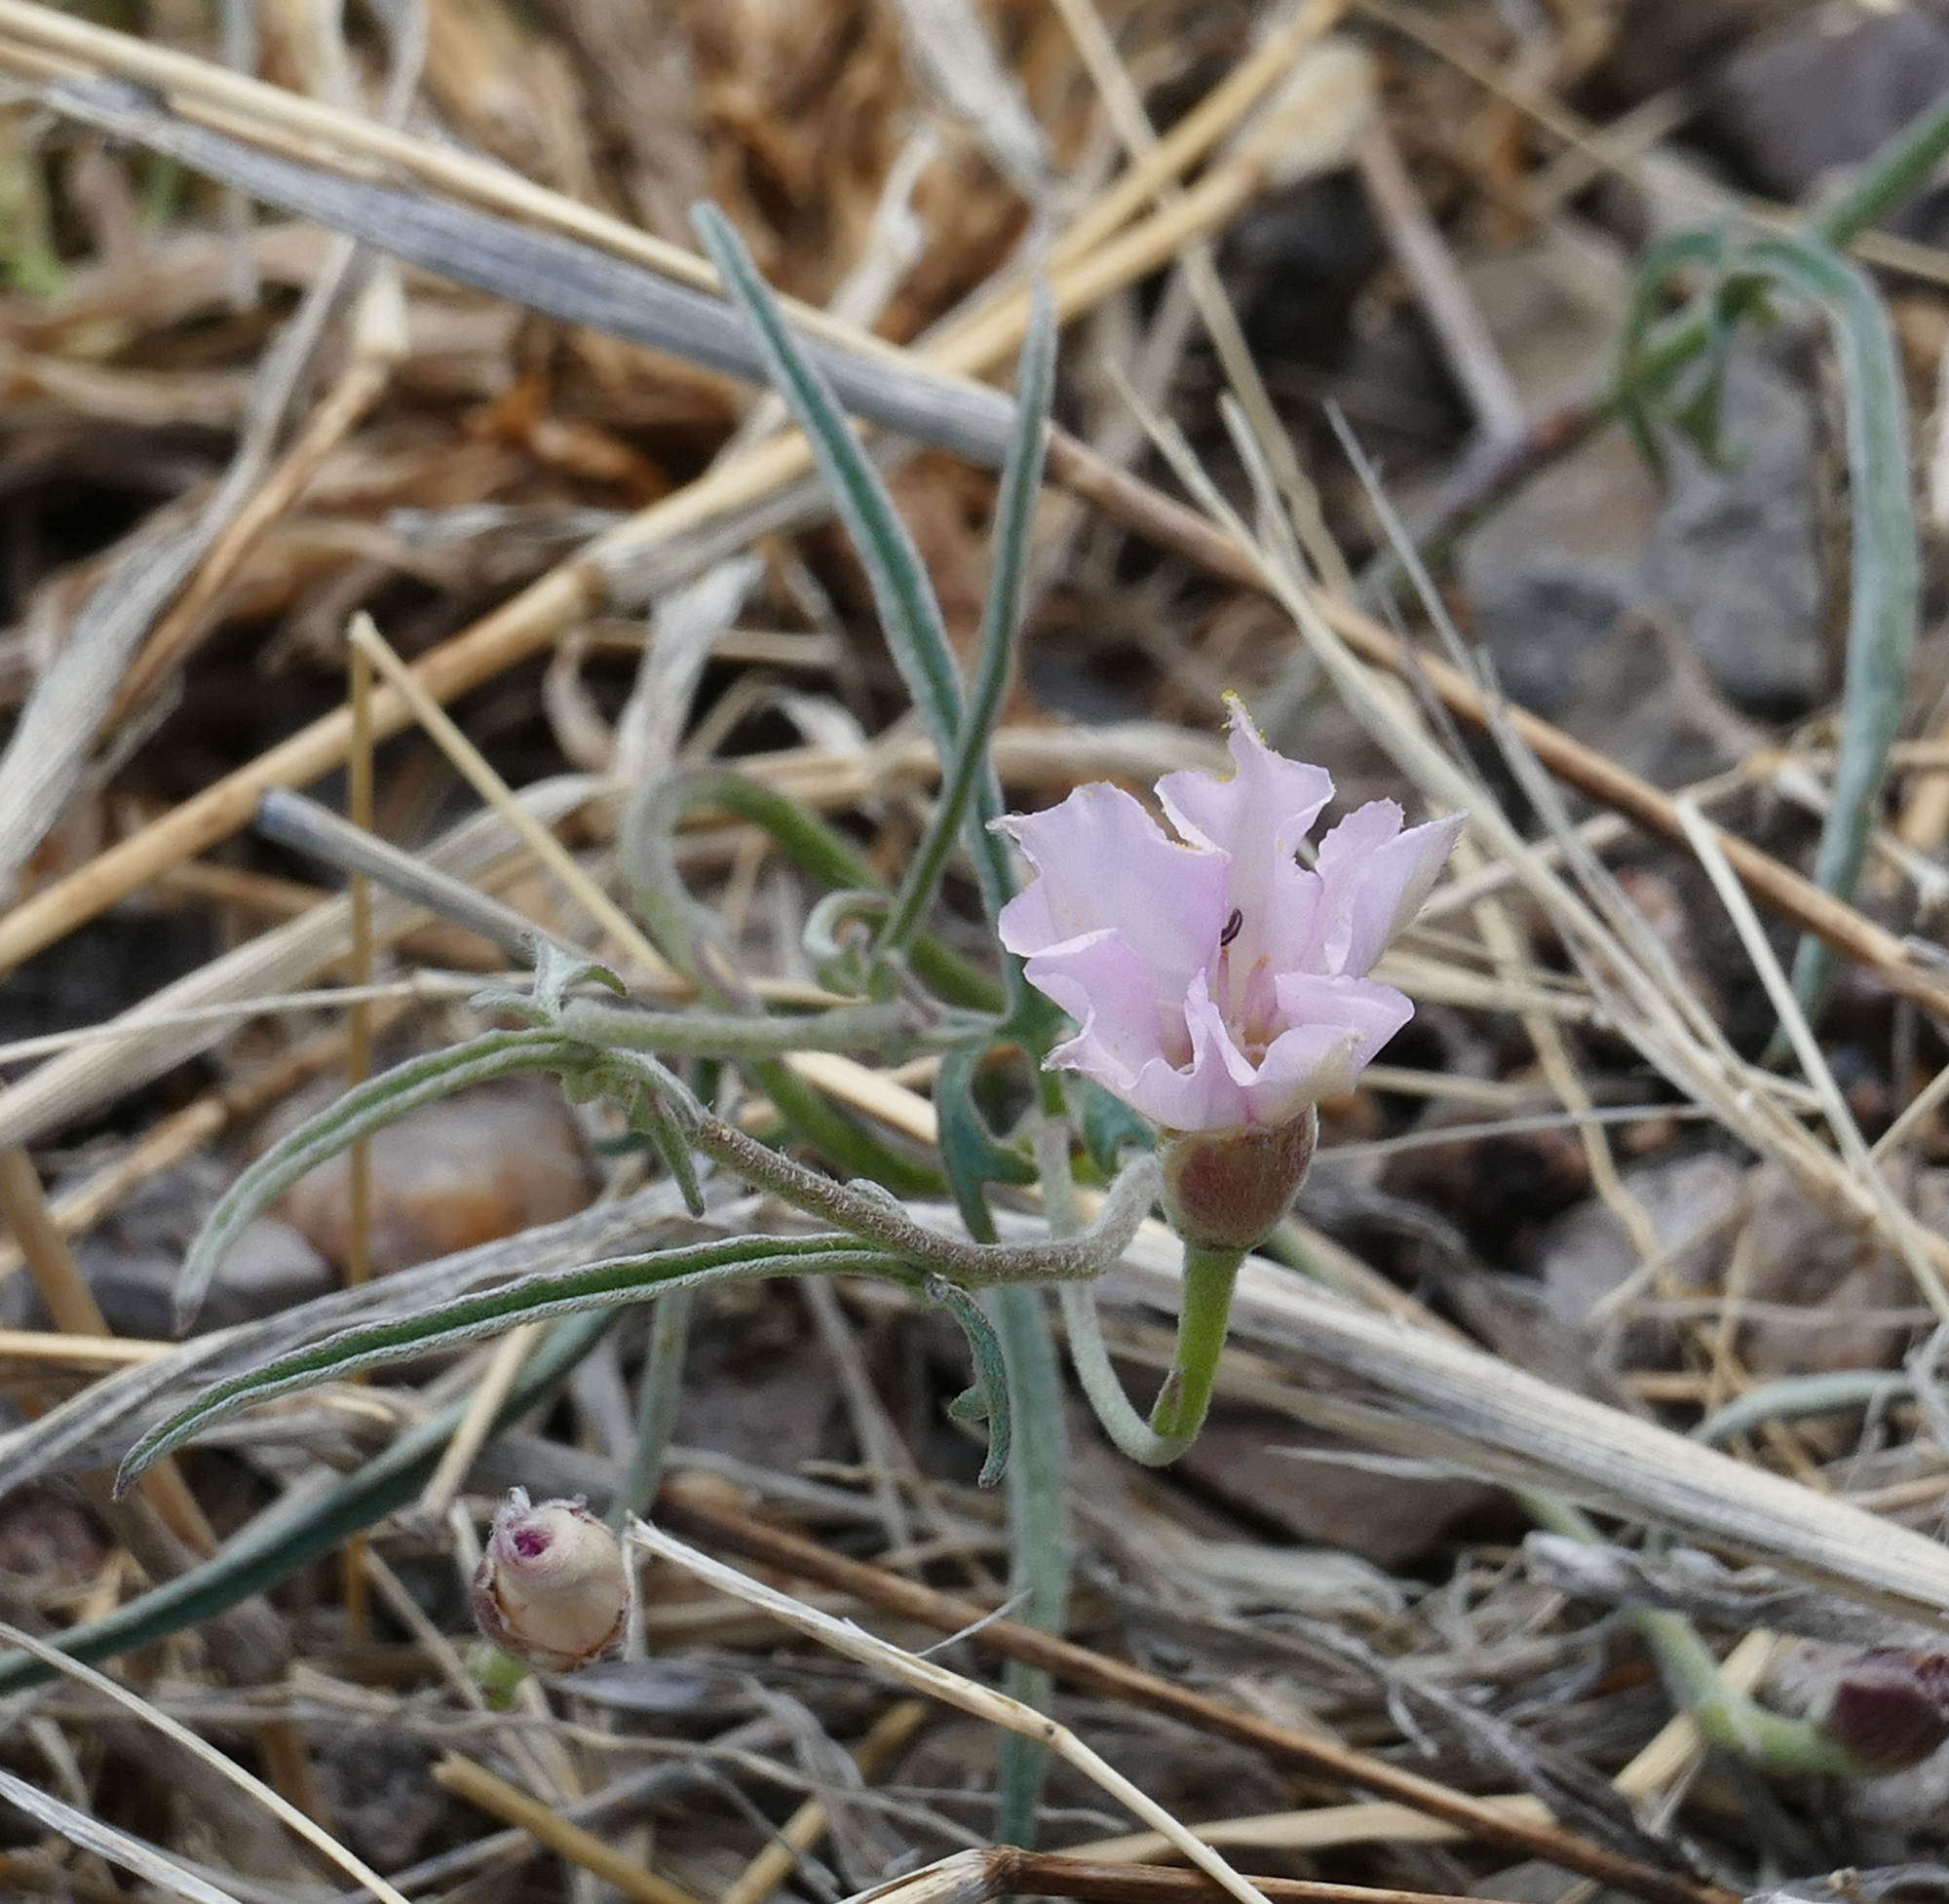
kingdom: Plantae
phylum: Tracheophyta
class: Magnoliopsida
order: Solanales
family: Convolvulaceae
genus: Convolvulus
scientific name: Convolvulus equitans
